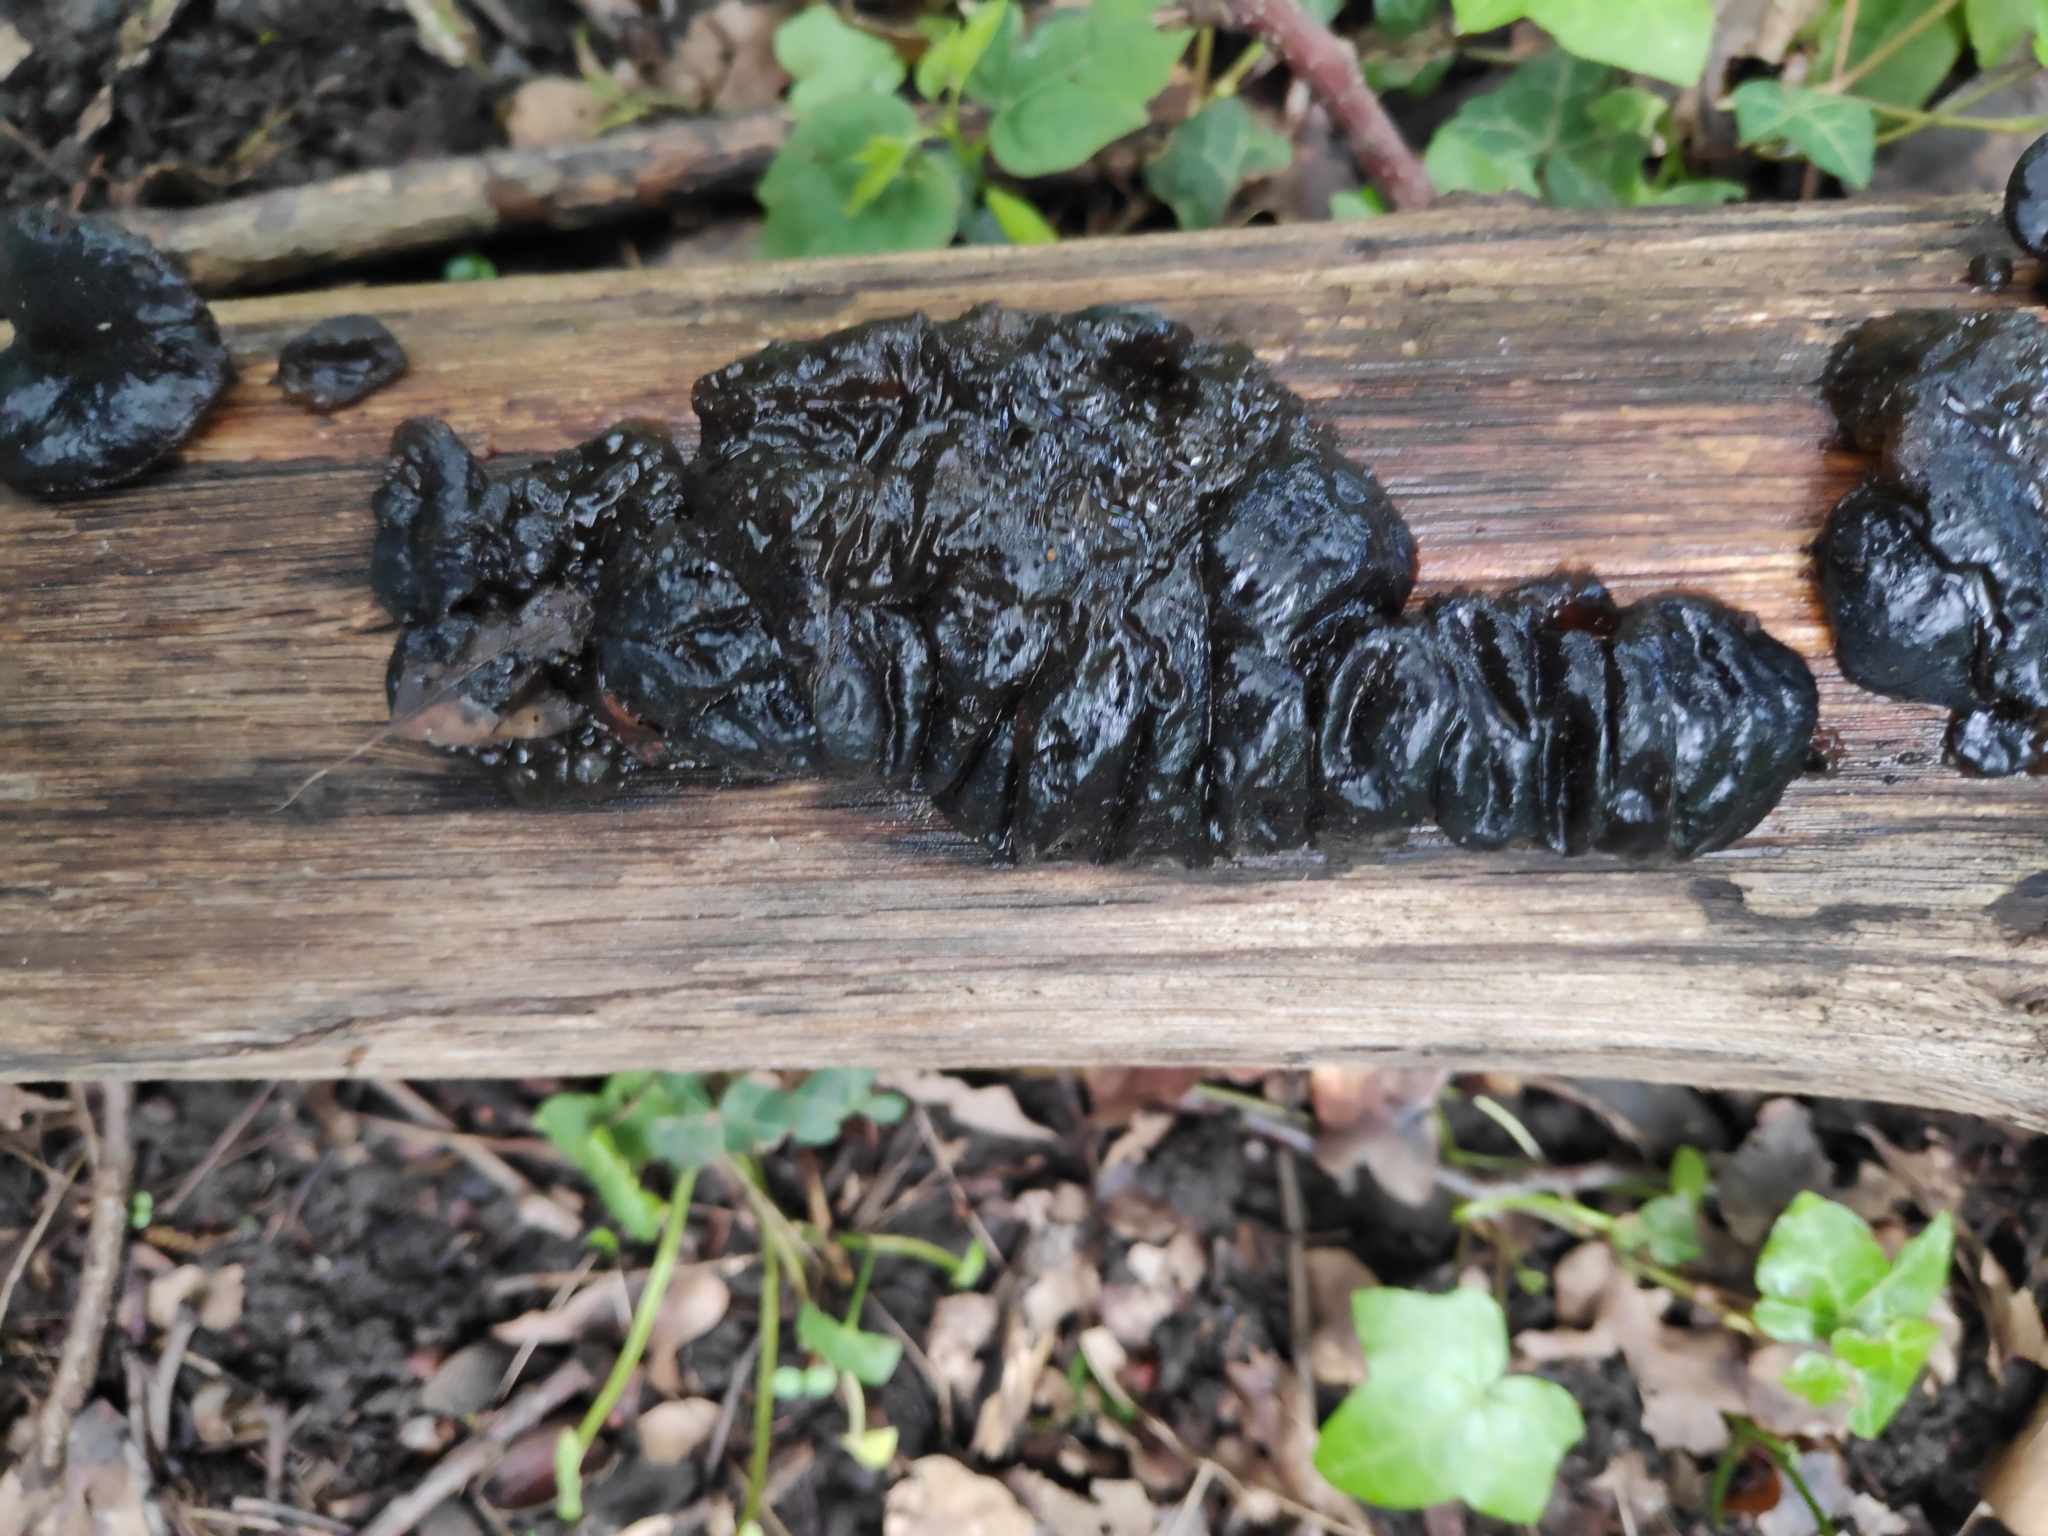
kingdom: Fungi
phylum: Basidiomycota
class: Agaricomycetes
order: Auriculariales
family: Auriculariaceae
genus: Exidia
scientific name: Exidia glandulosa
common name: Witches' butter
